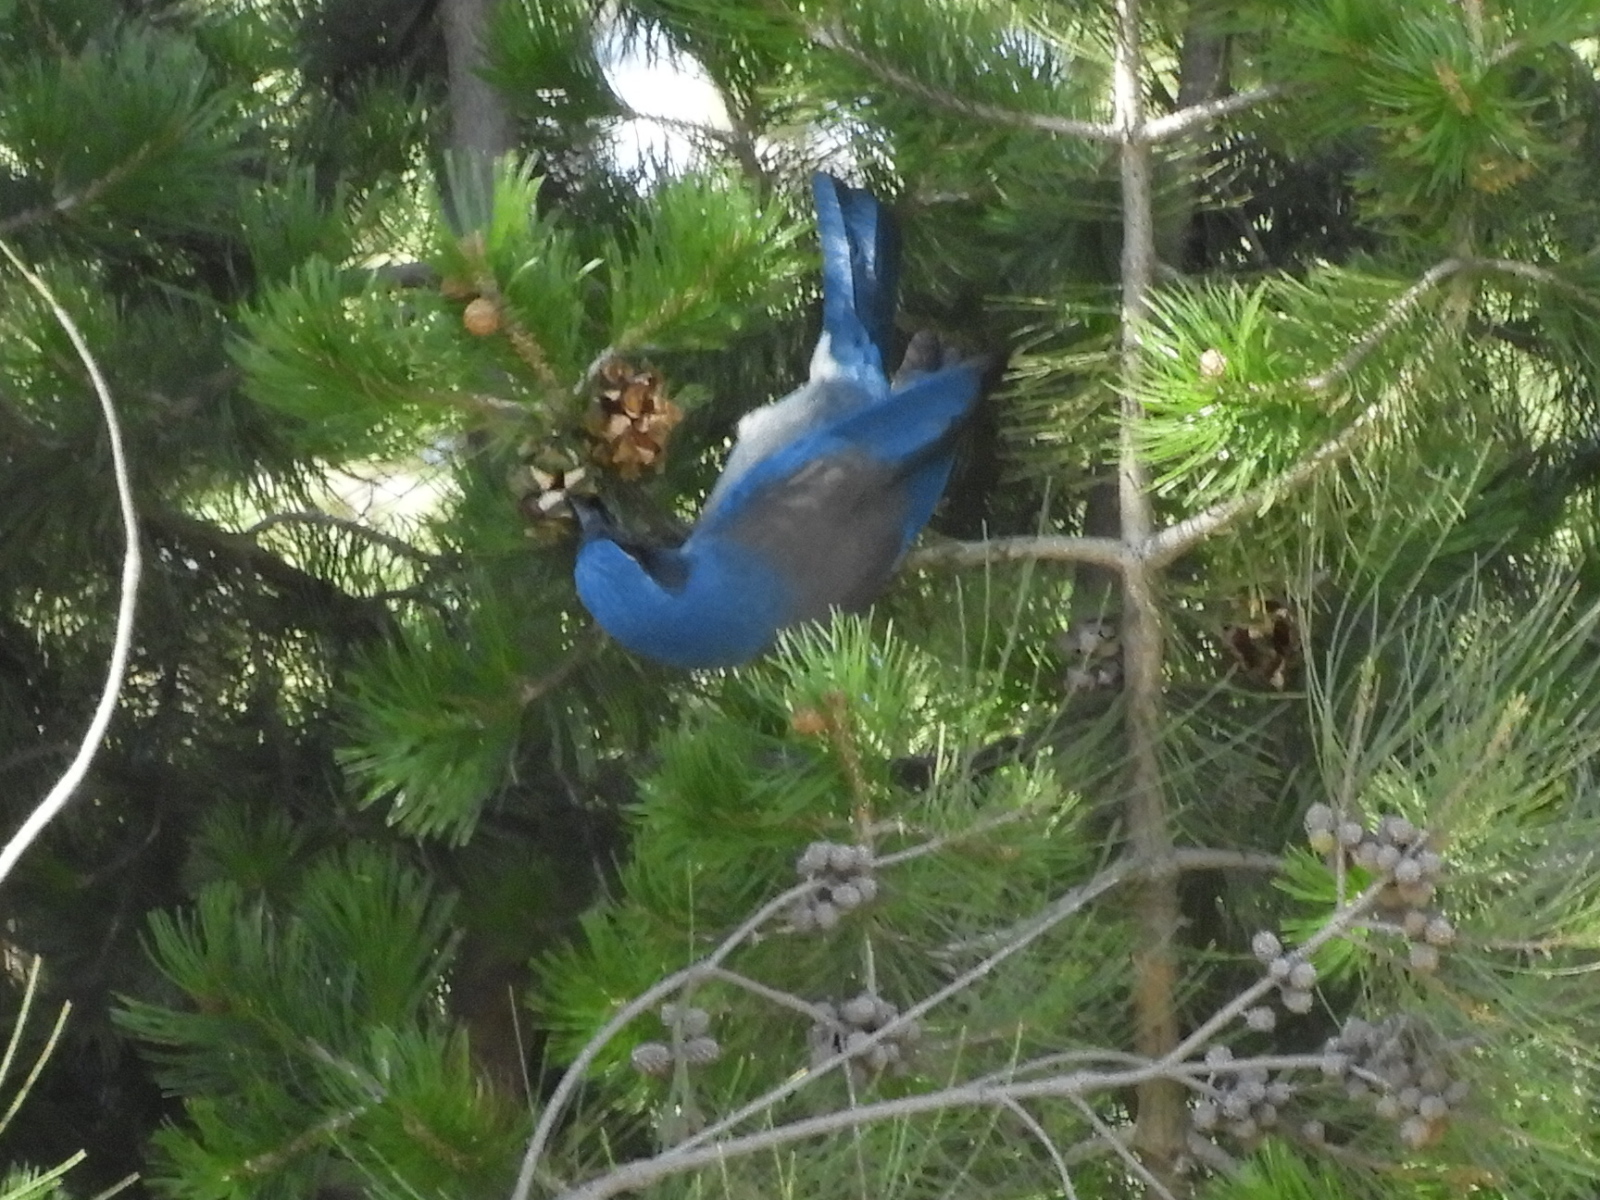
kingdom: Animalia
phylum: Chordata
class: Aves
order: Passeriformes
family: Corvidae
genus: Aphelocoma
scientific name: Aphelocoma woodhouseii
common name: Woodhouse's scrub-jay
